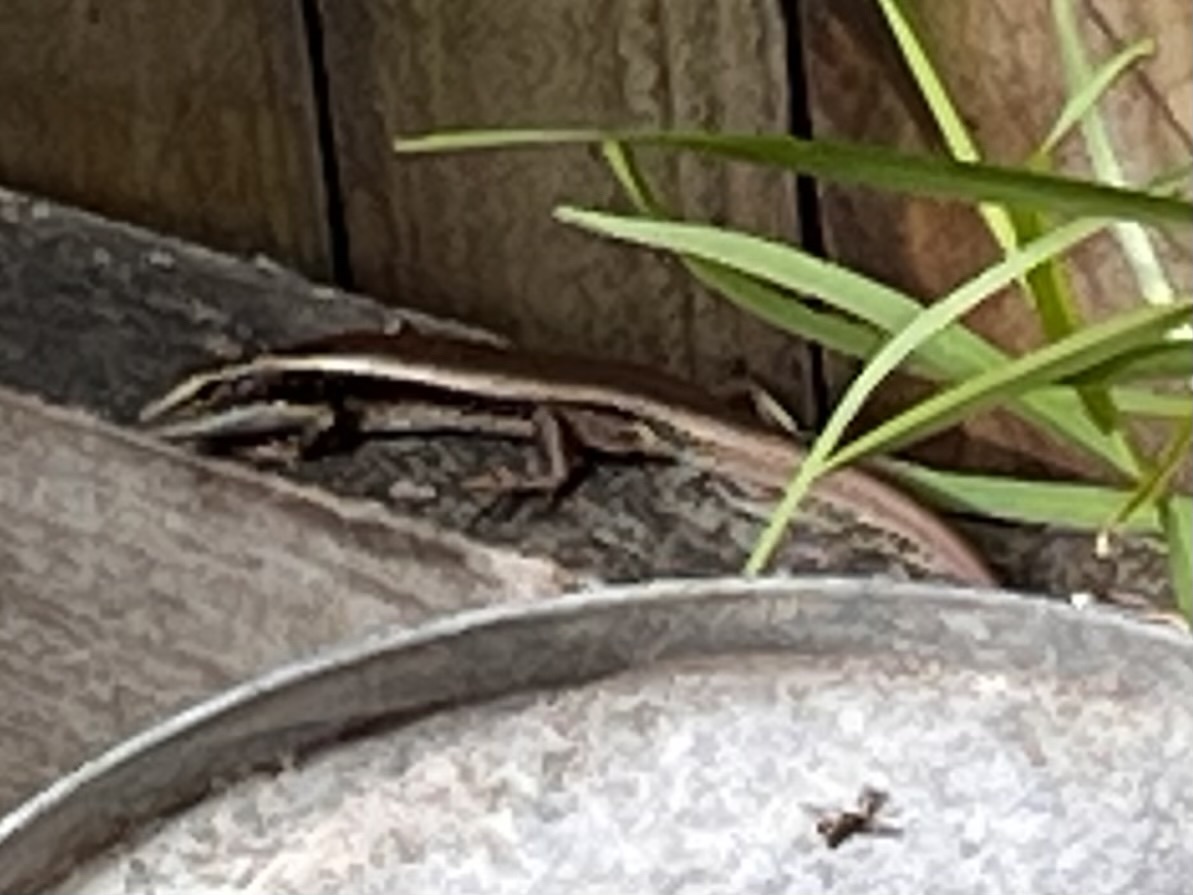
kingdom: Animalia
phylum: Chordata
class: Squamata
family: Scincidae
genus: Eulamprus
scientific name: Eulamprus quoyii
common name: Eastern water skink
